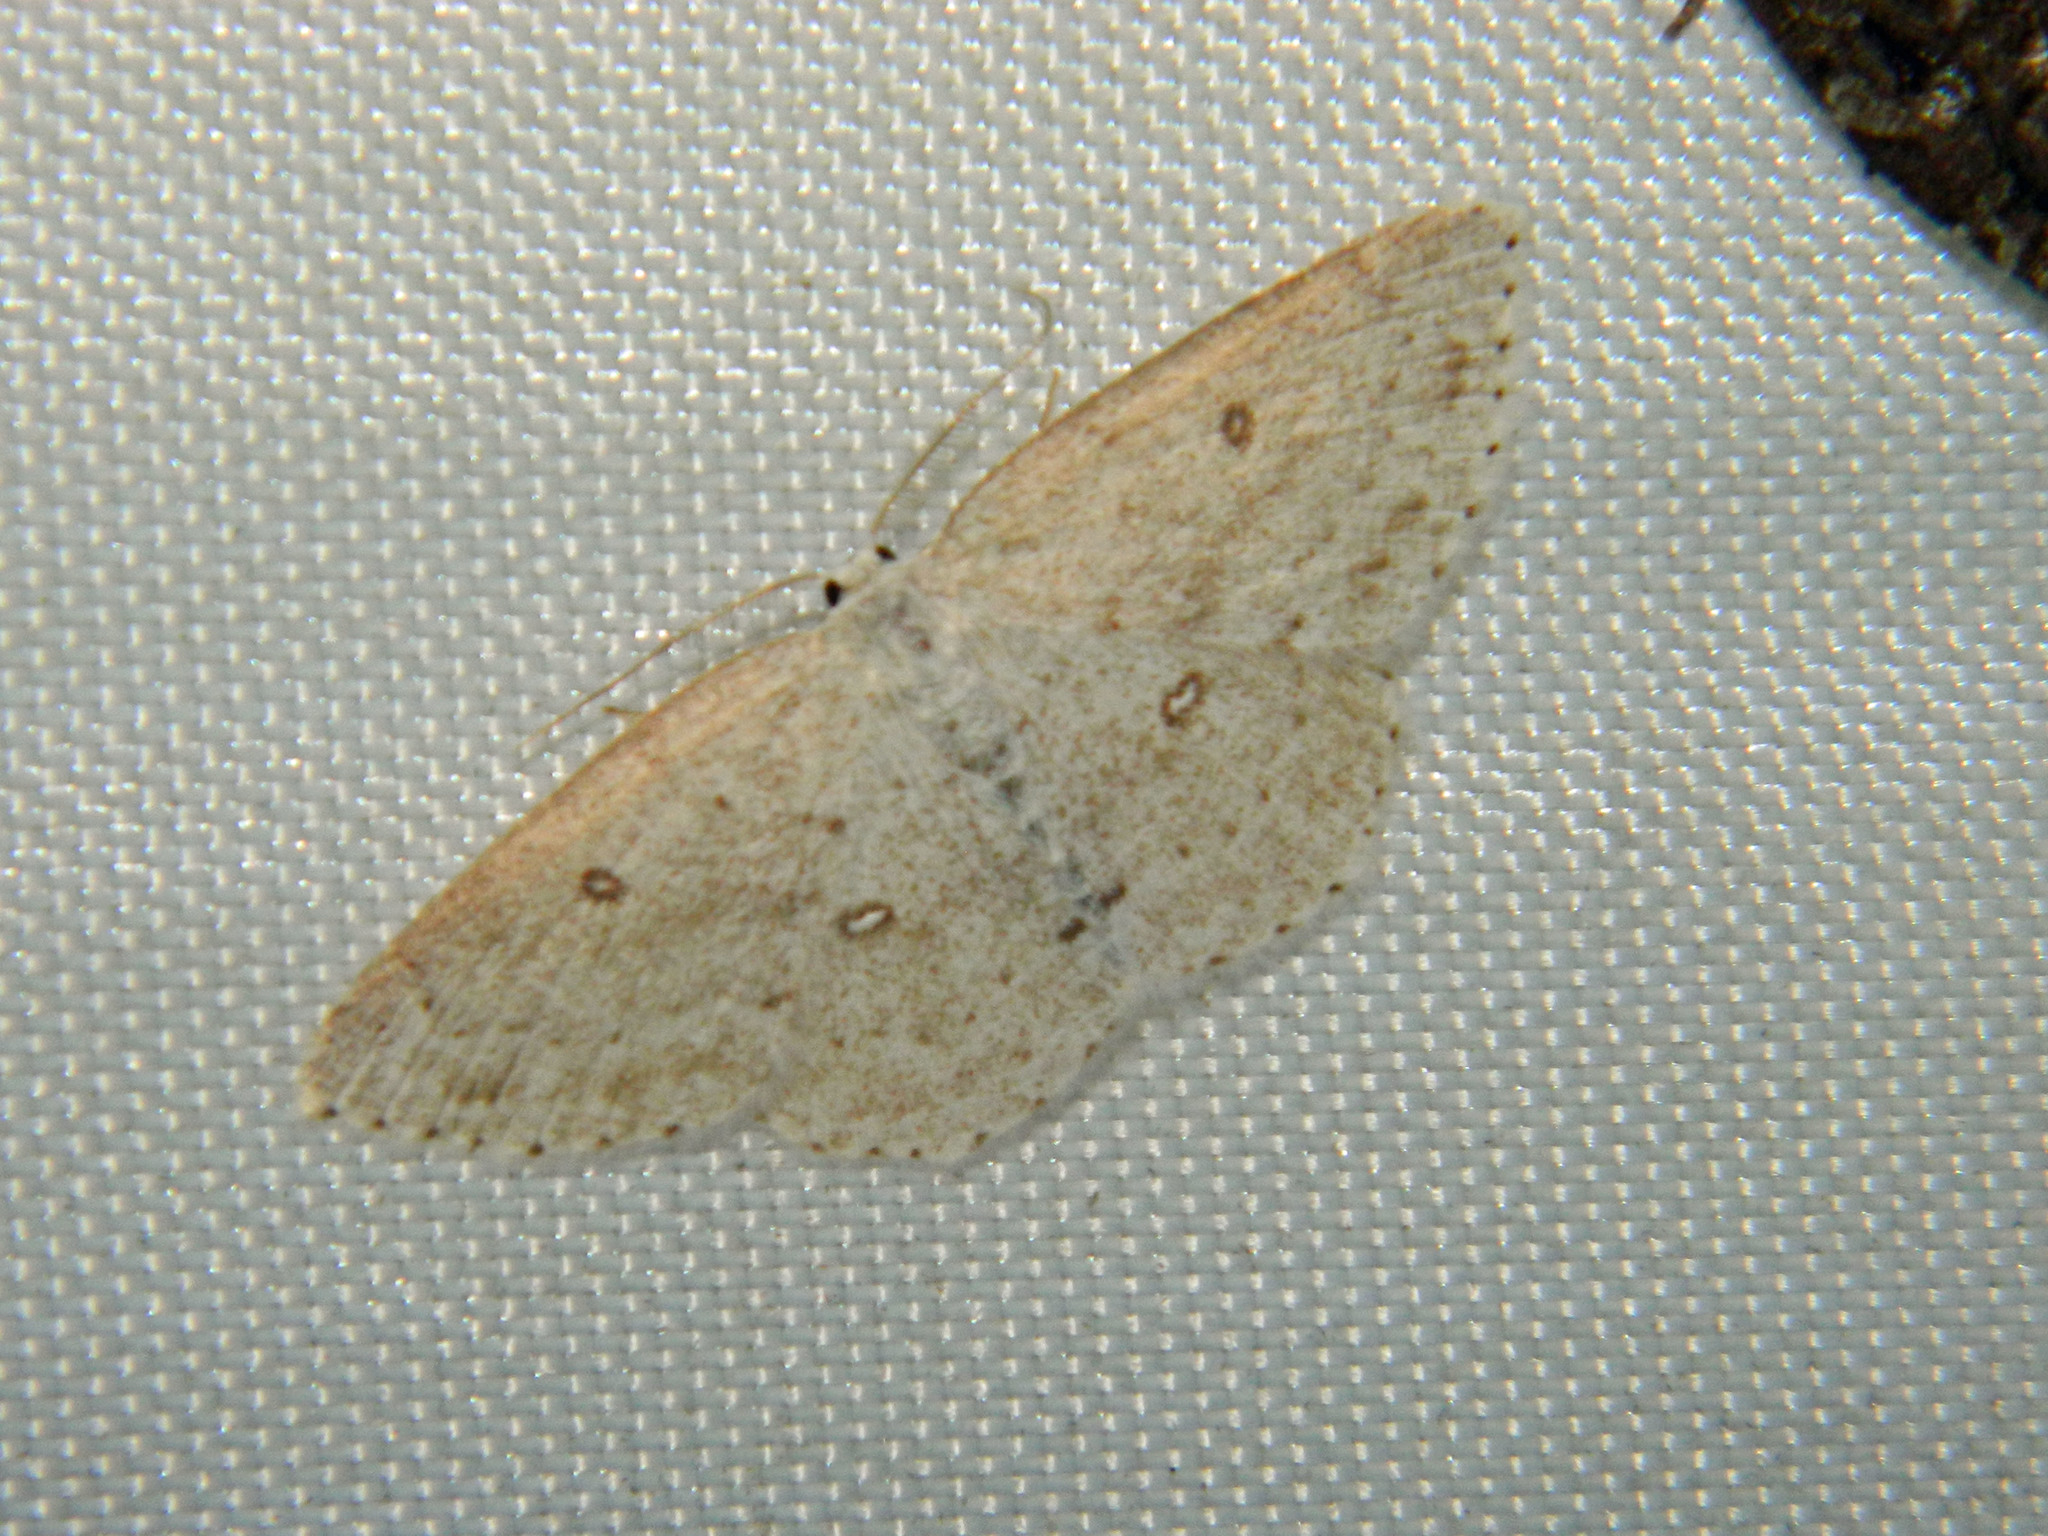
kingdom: Animalia
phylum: Arthropoda
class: Insecta
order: Lepidoptera
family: Geometridae
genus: Cyclophora
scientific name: Cyclophora pendulinaria
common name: Sweet fern geometer
